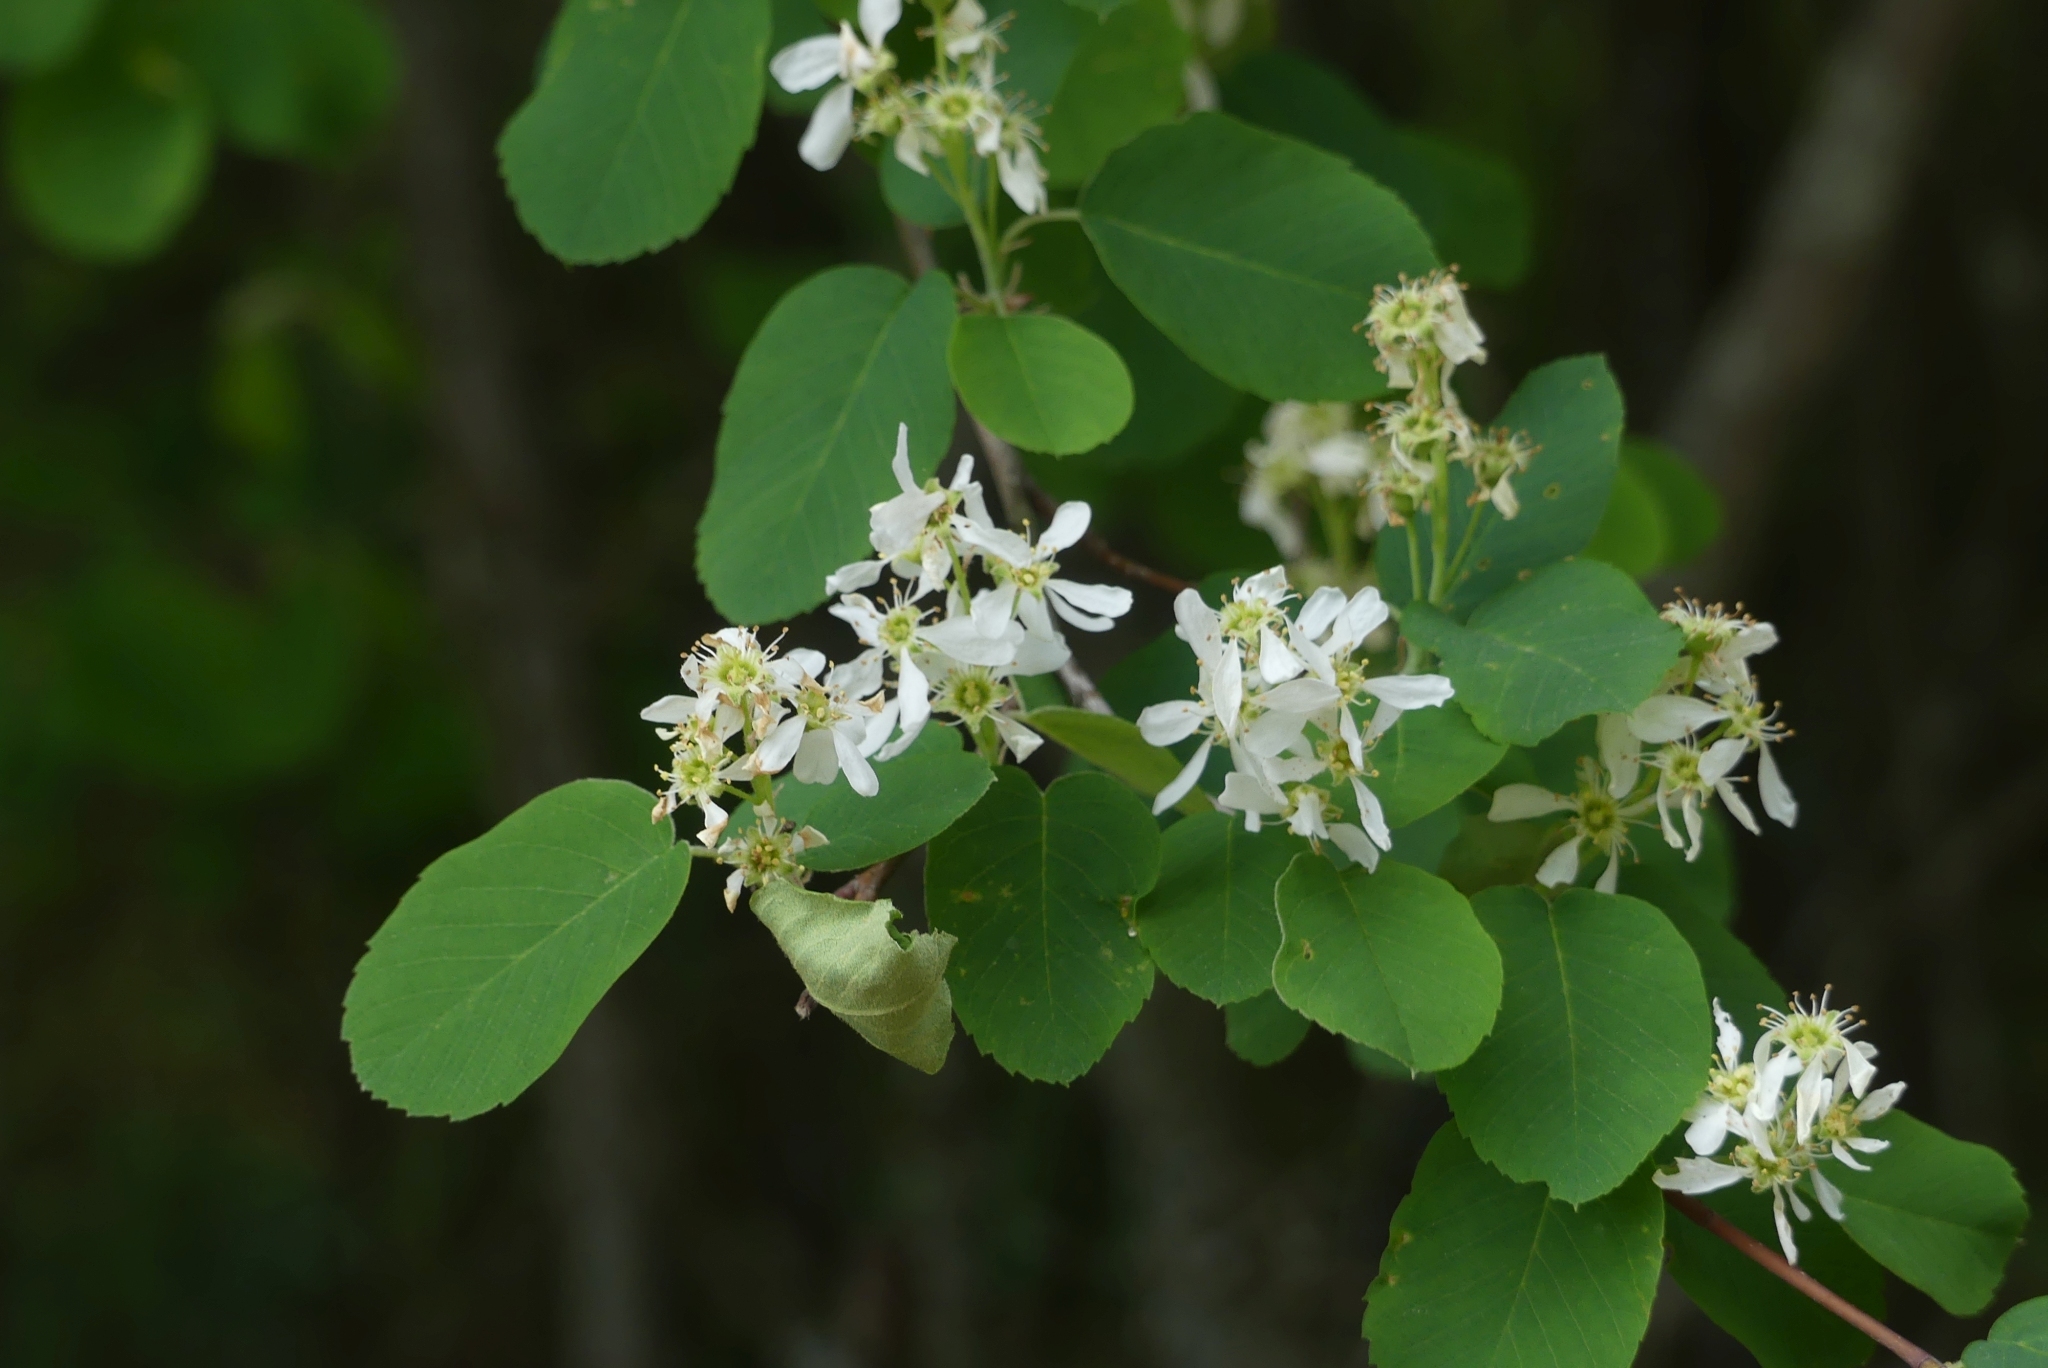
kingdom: Plantae
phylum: Tracheophyta
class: Magnoliopsida
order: Rosales
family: Rosaceae
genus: Amelanchier
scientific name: Amelanchier alnifolia
